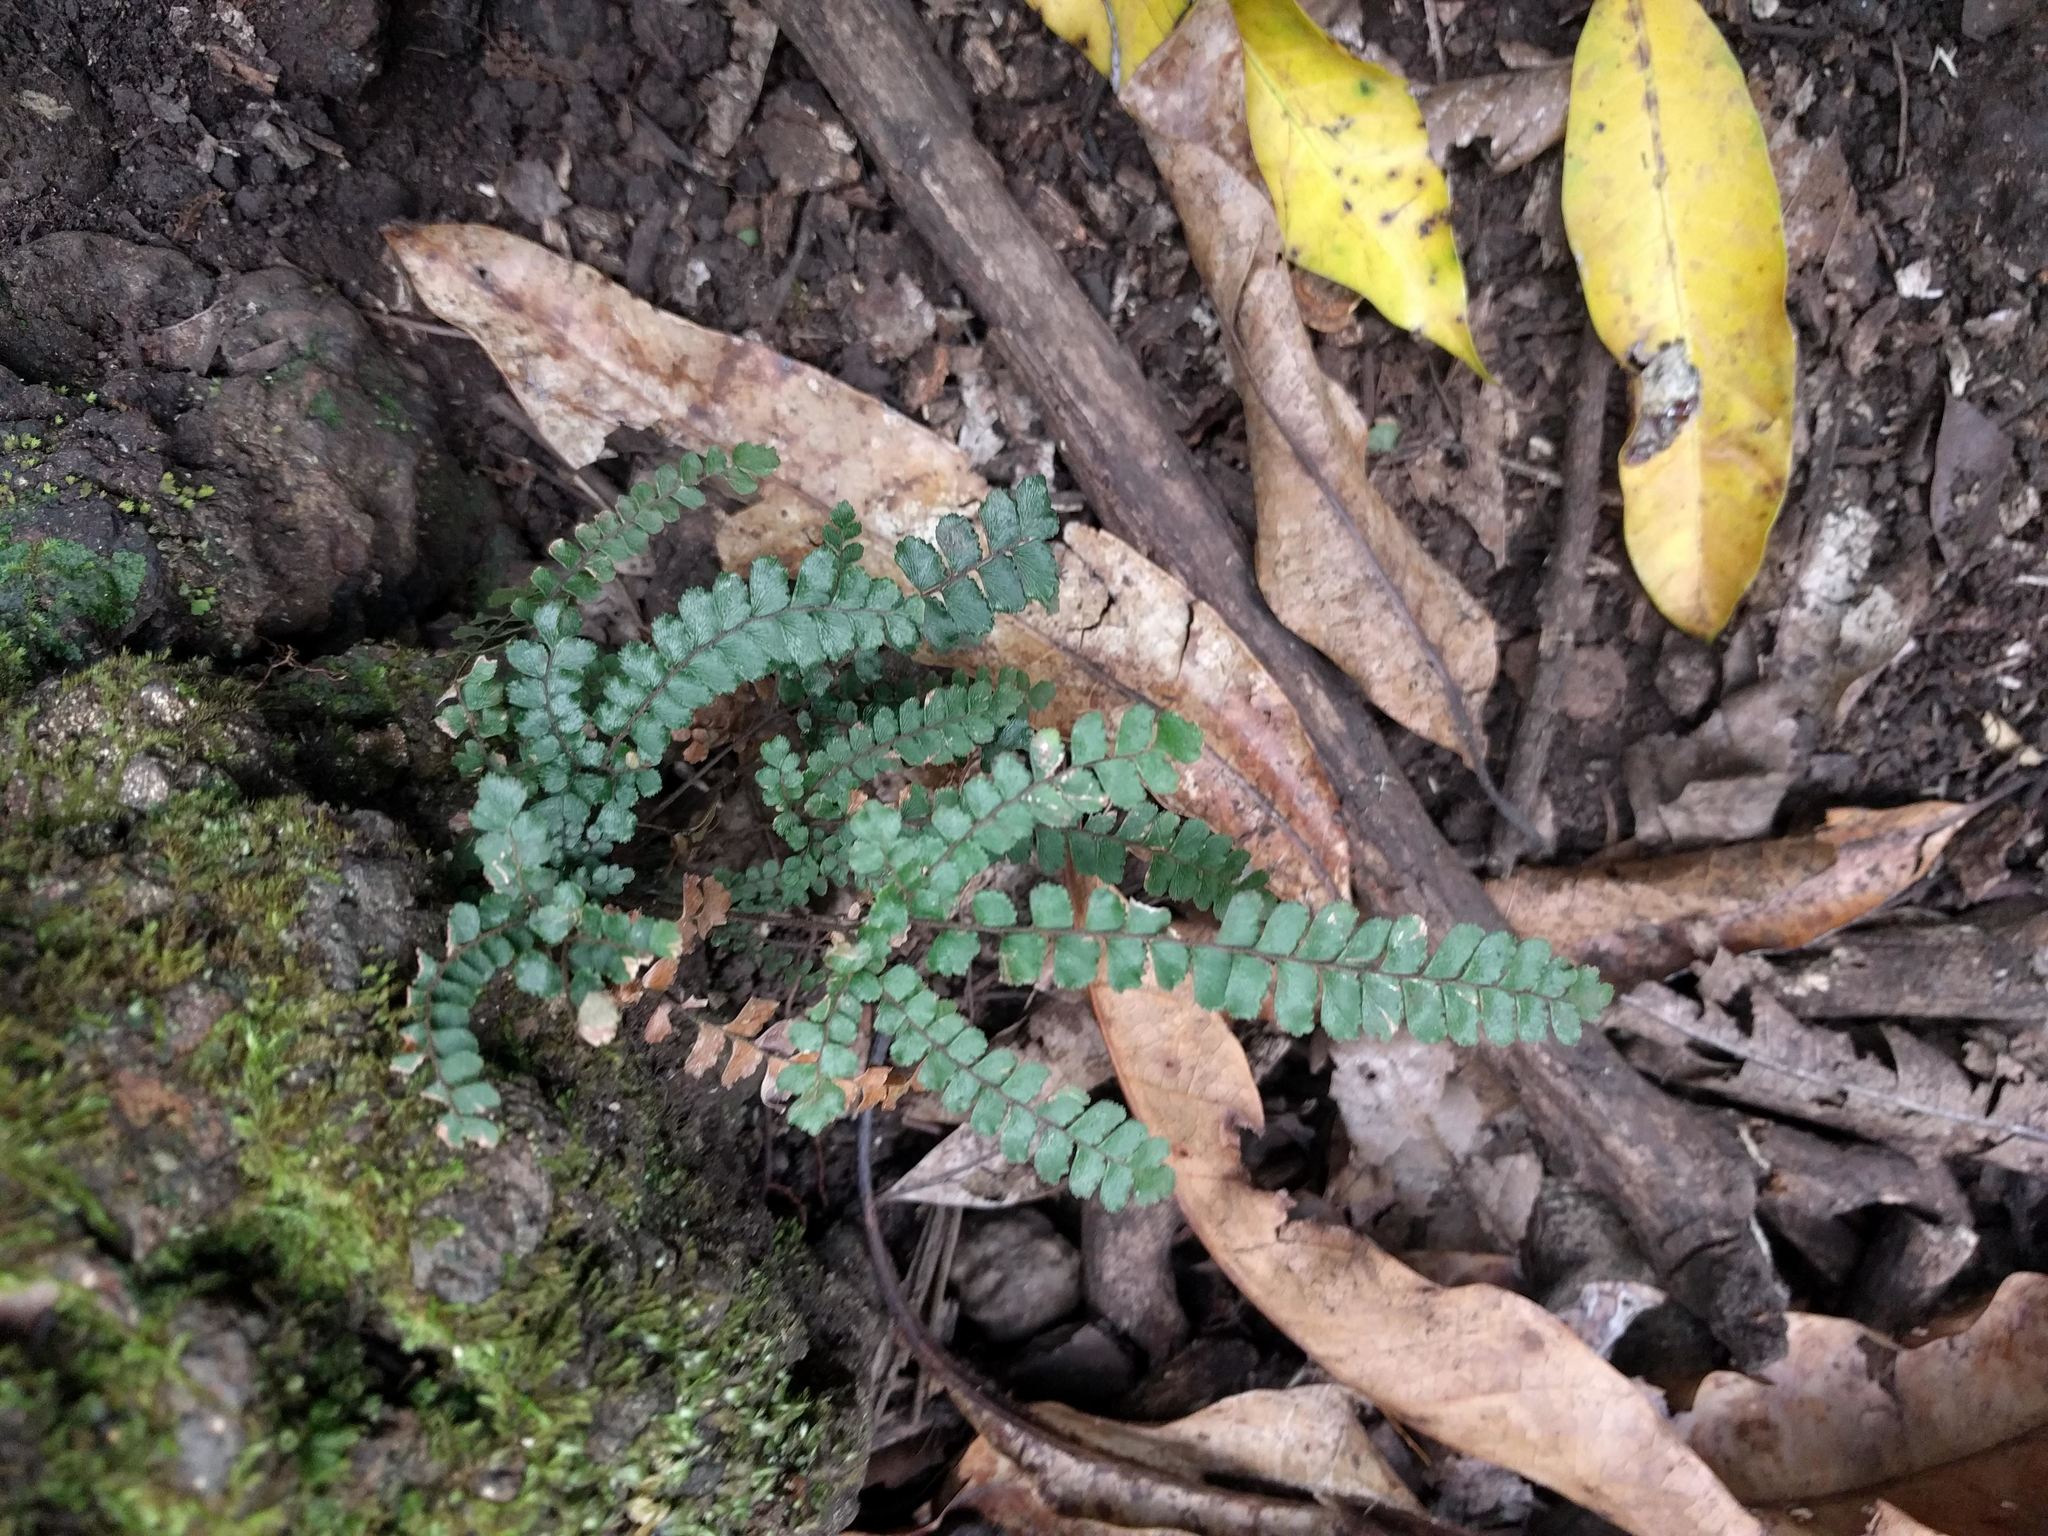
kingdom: Plantae
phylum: Tracheophyta
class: Polypodiopsida
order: Polypodiales
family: Pteridaceae
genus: Adiantum
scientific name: Adiantum hispidulum
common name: Rough maidenhair
